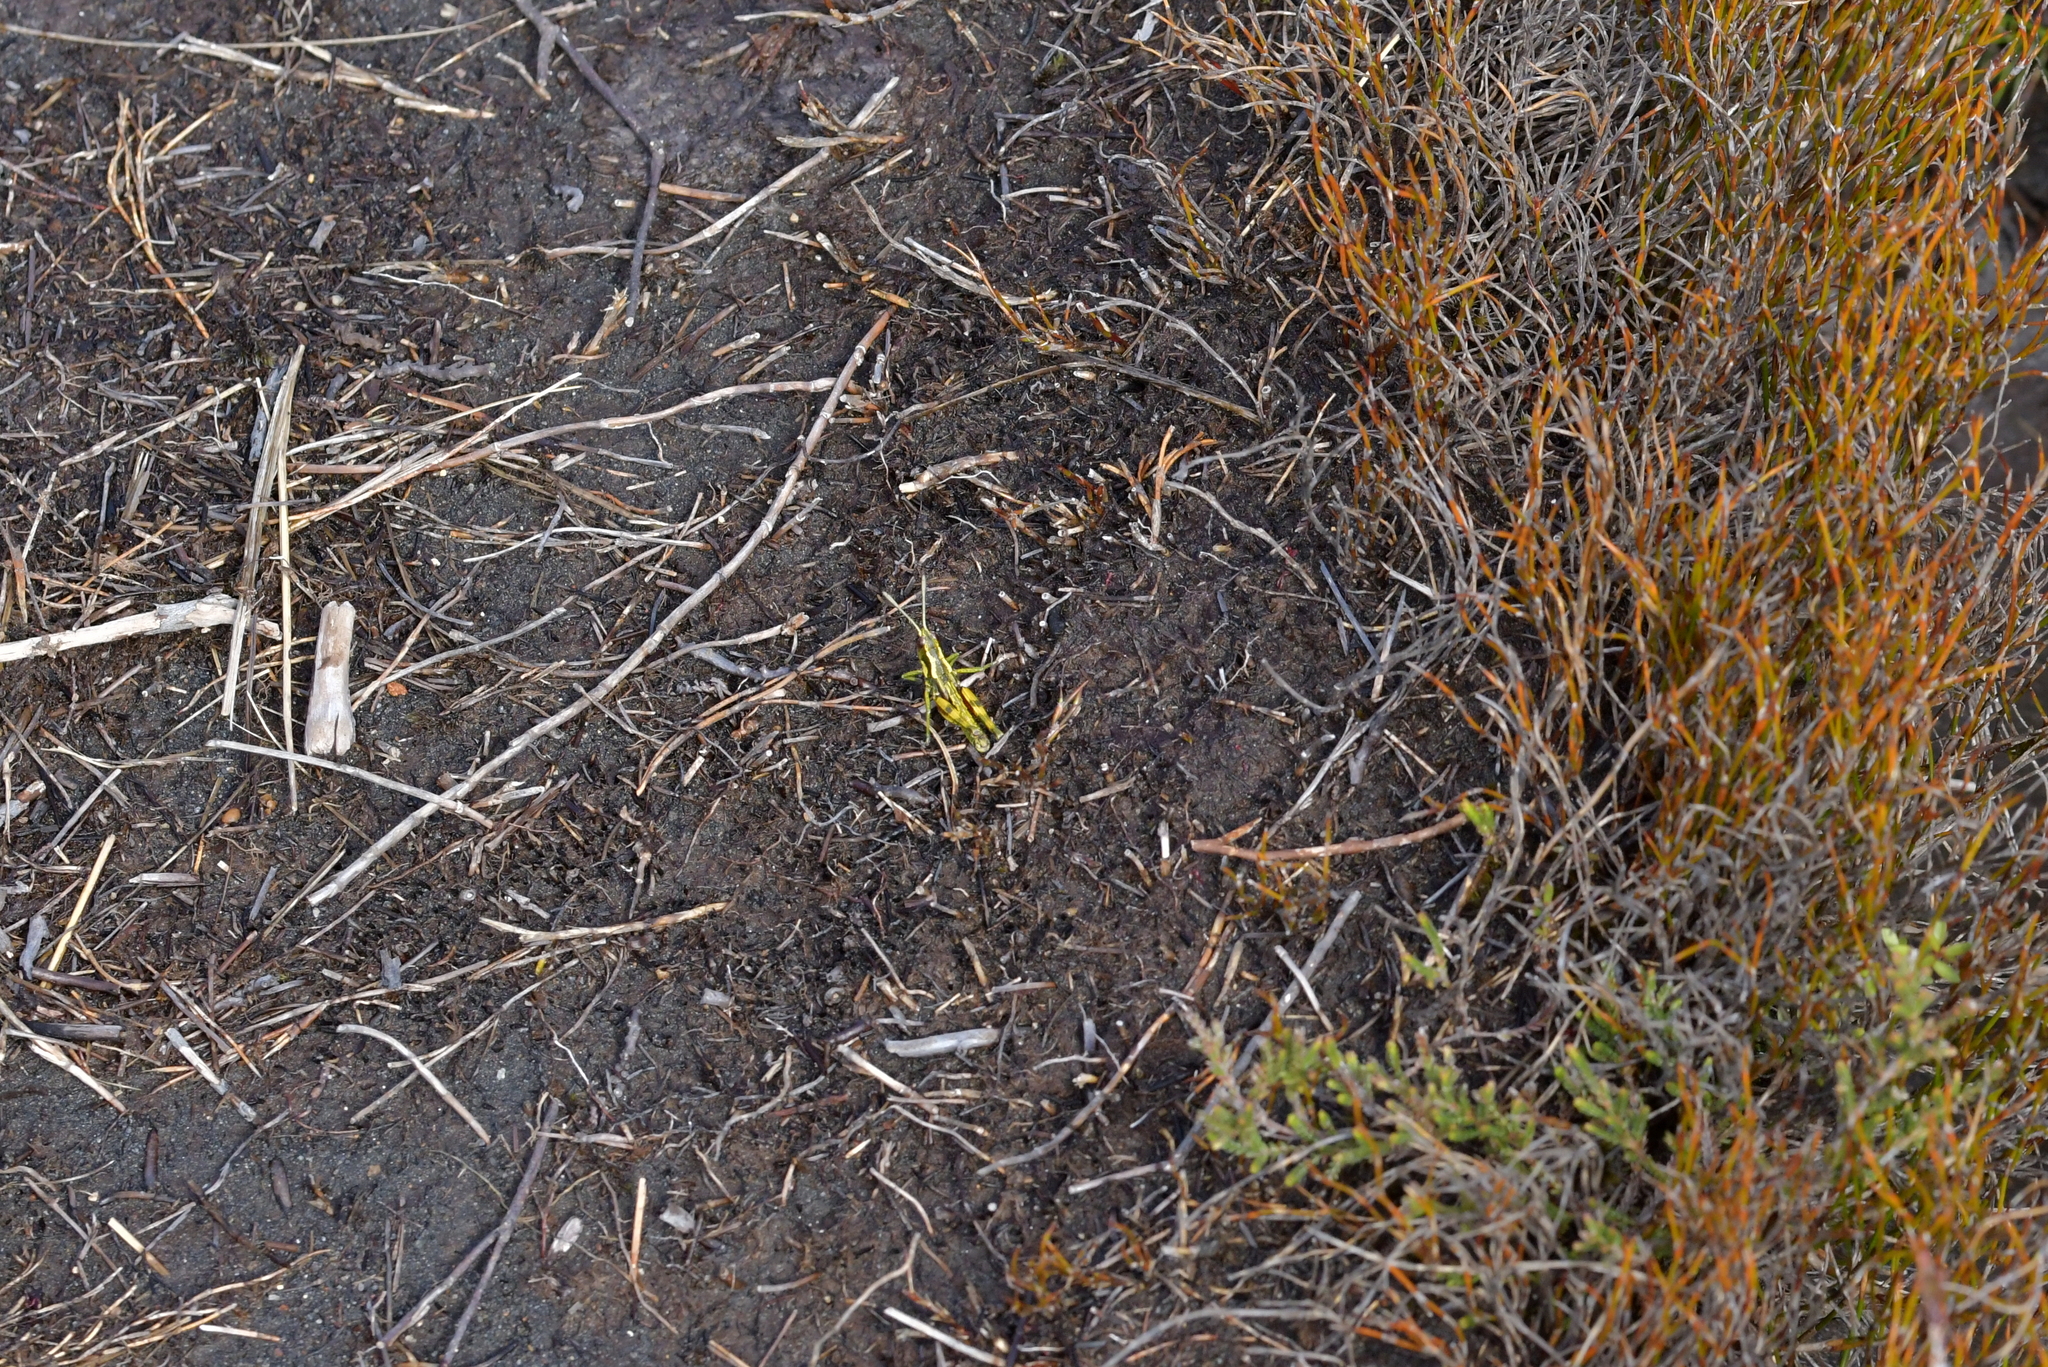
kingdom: Animalia
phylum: Arthropoda
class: Insecta
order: Orthoptera
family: Acrididae
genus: Sigaus
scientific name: Sigaus piliferus
